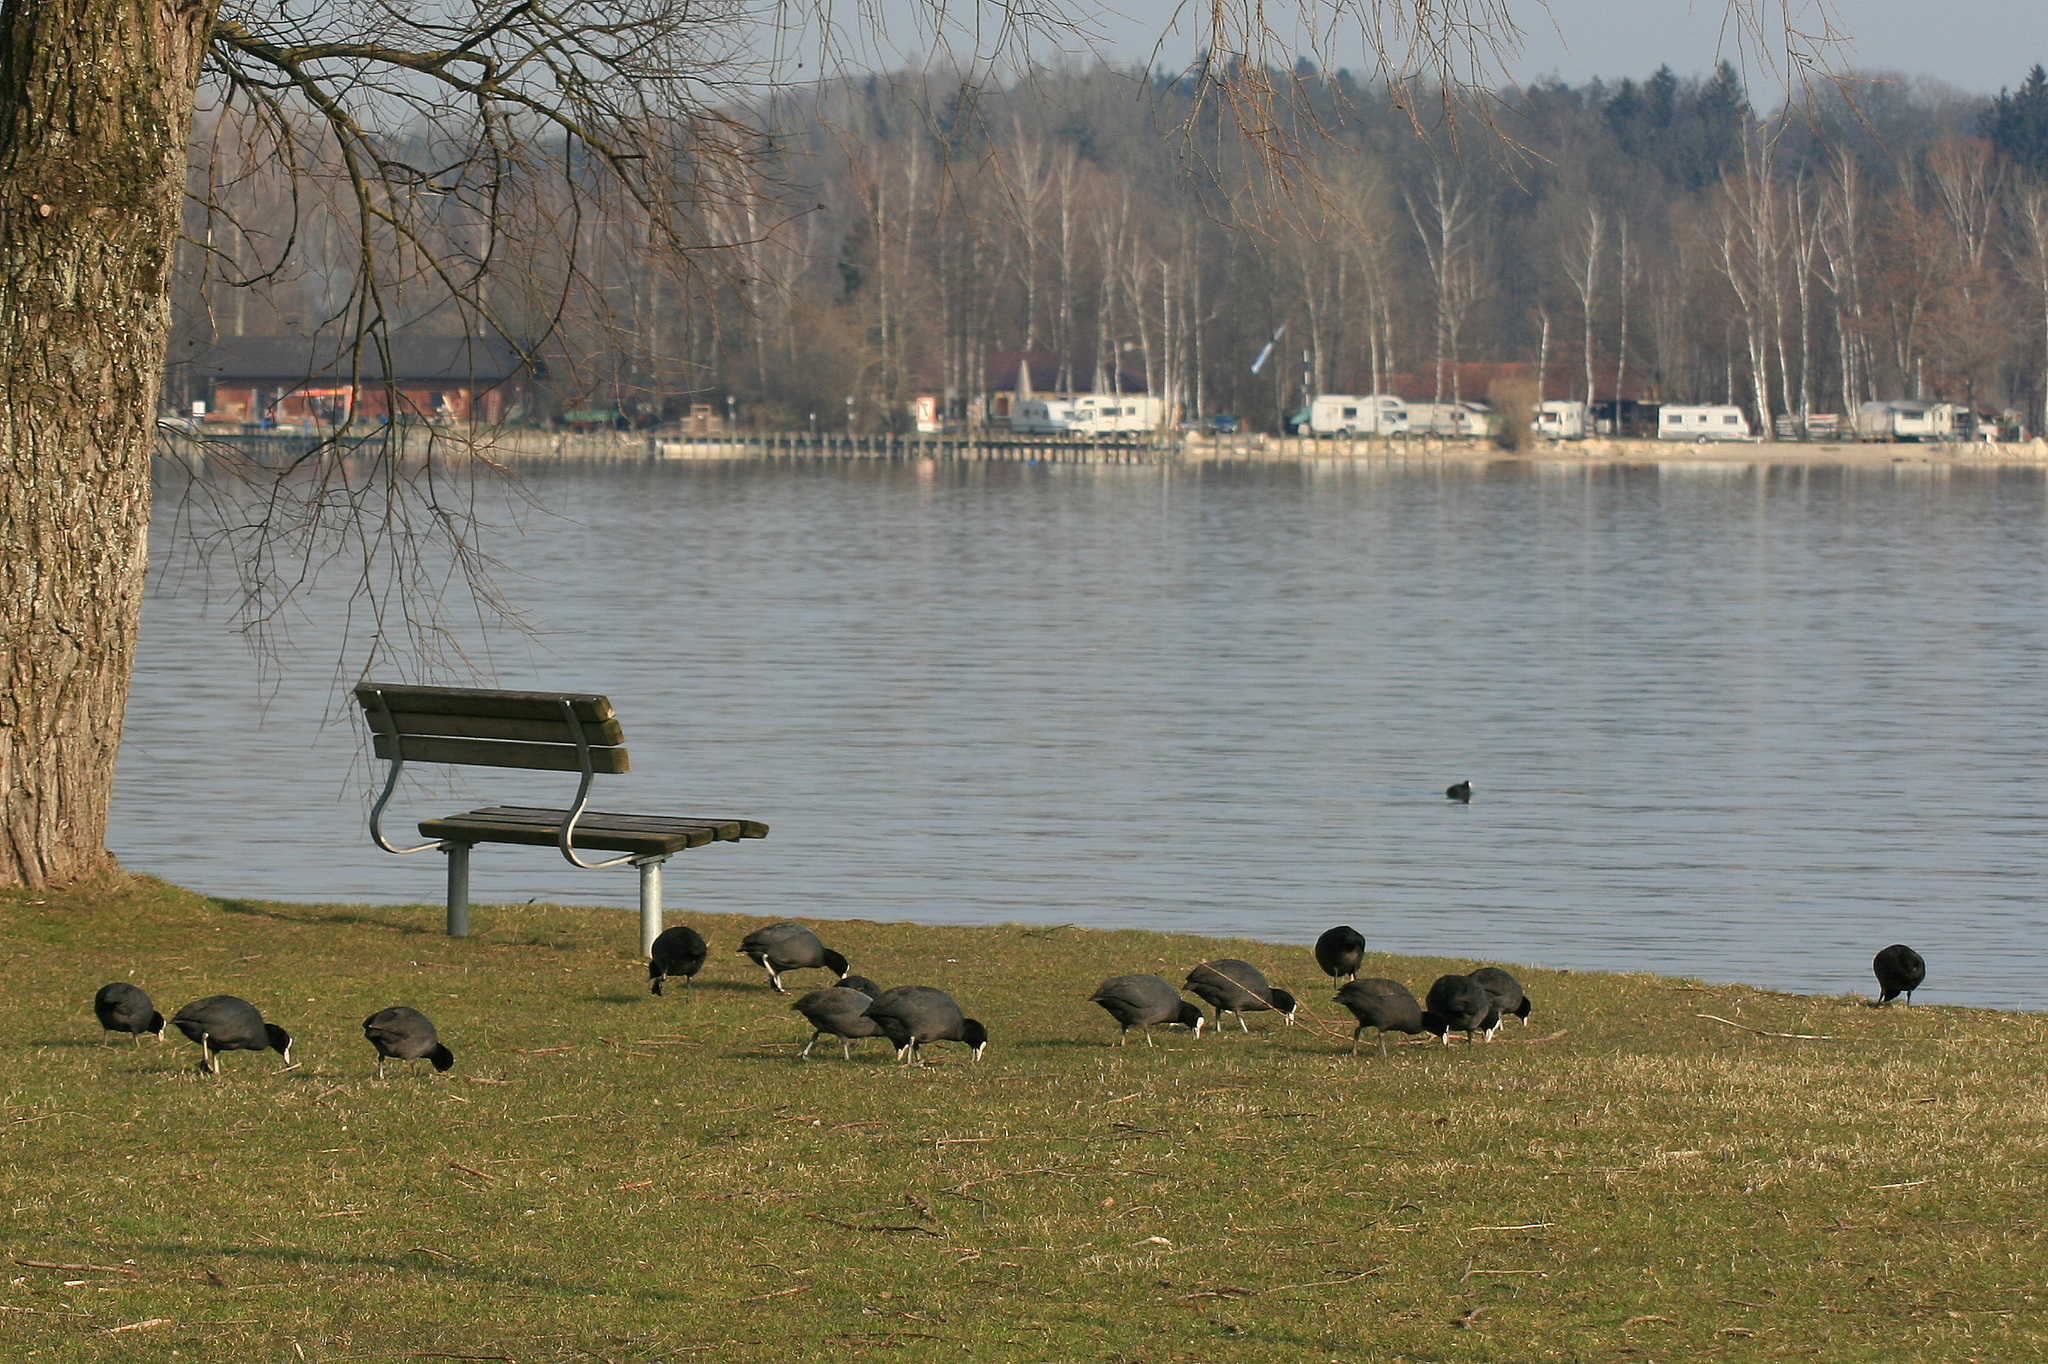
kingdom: Animalia
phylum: Chordata
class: Aves
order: Gruiformes
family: Rallidae
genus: Fulica
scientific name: Fulica atra
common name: Eurasian coot
